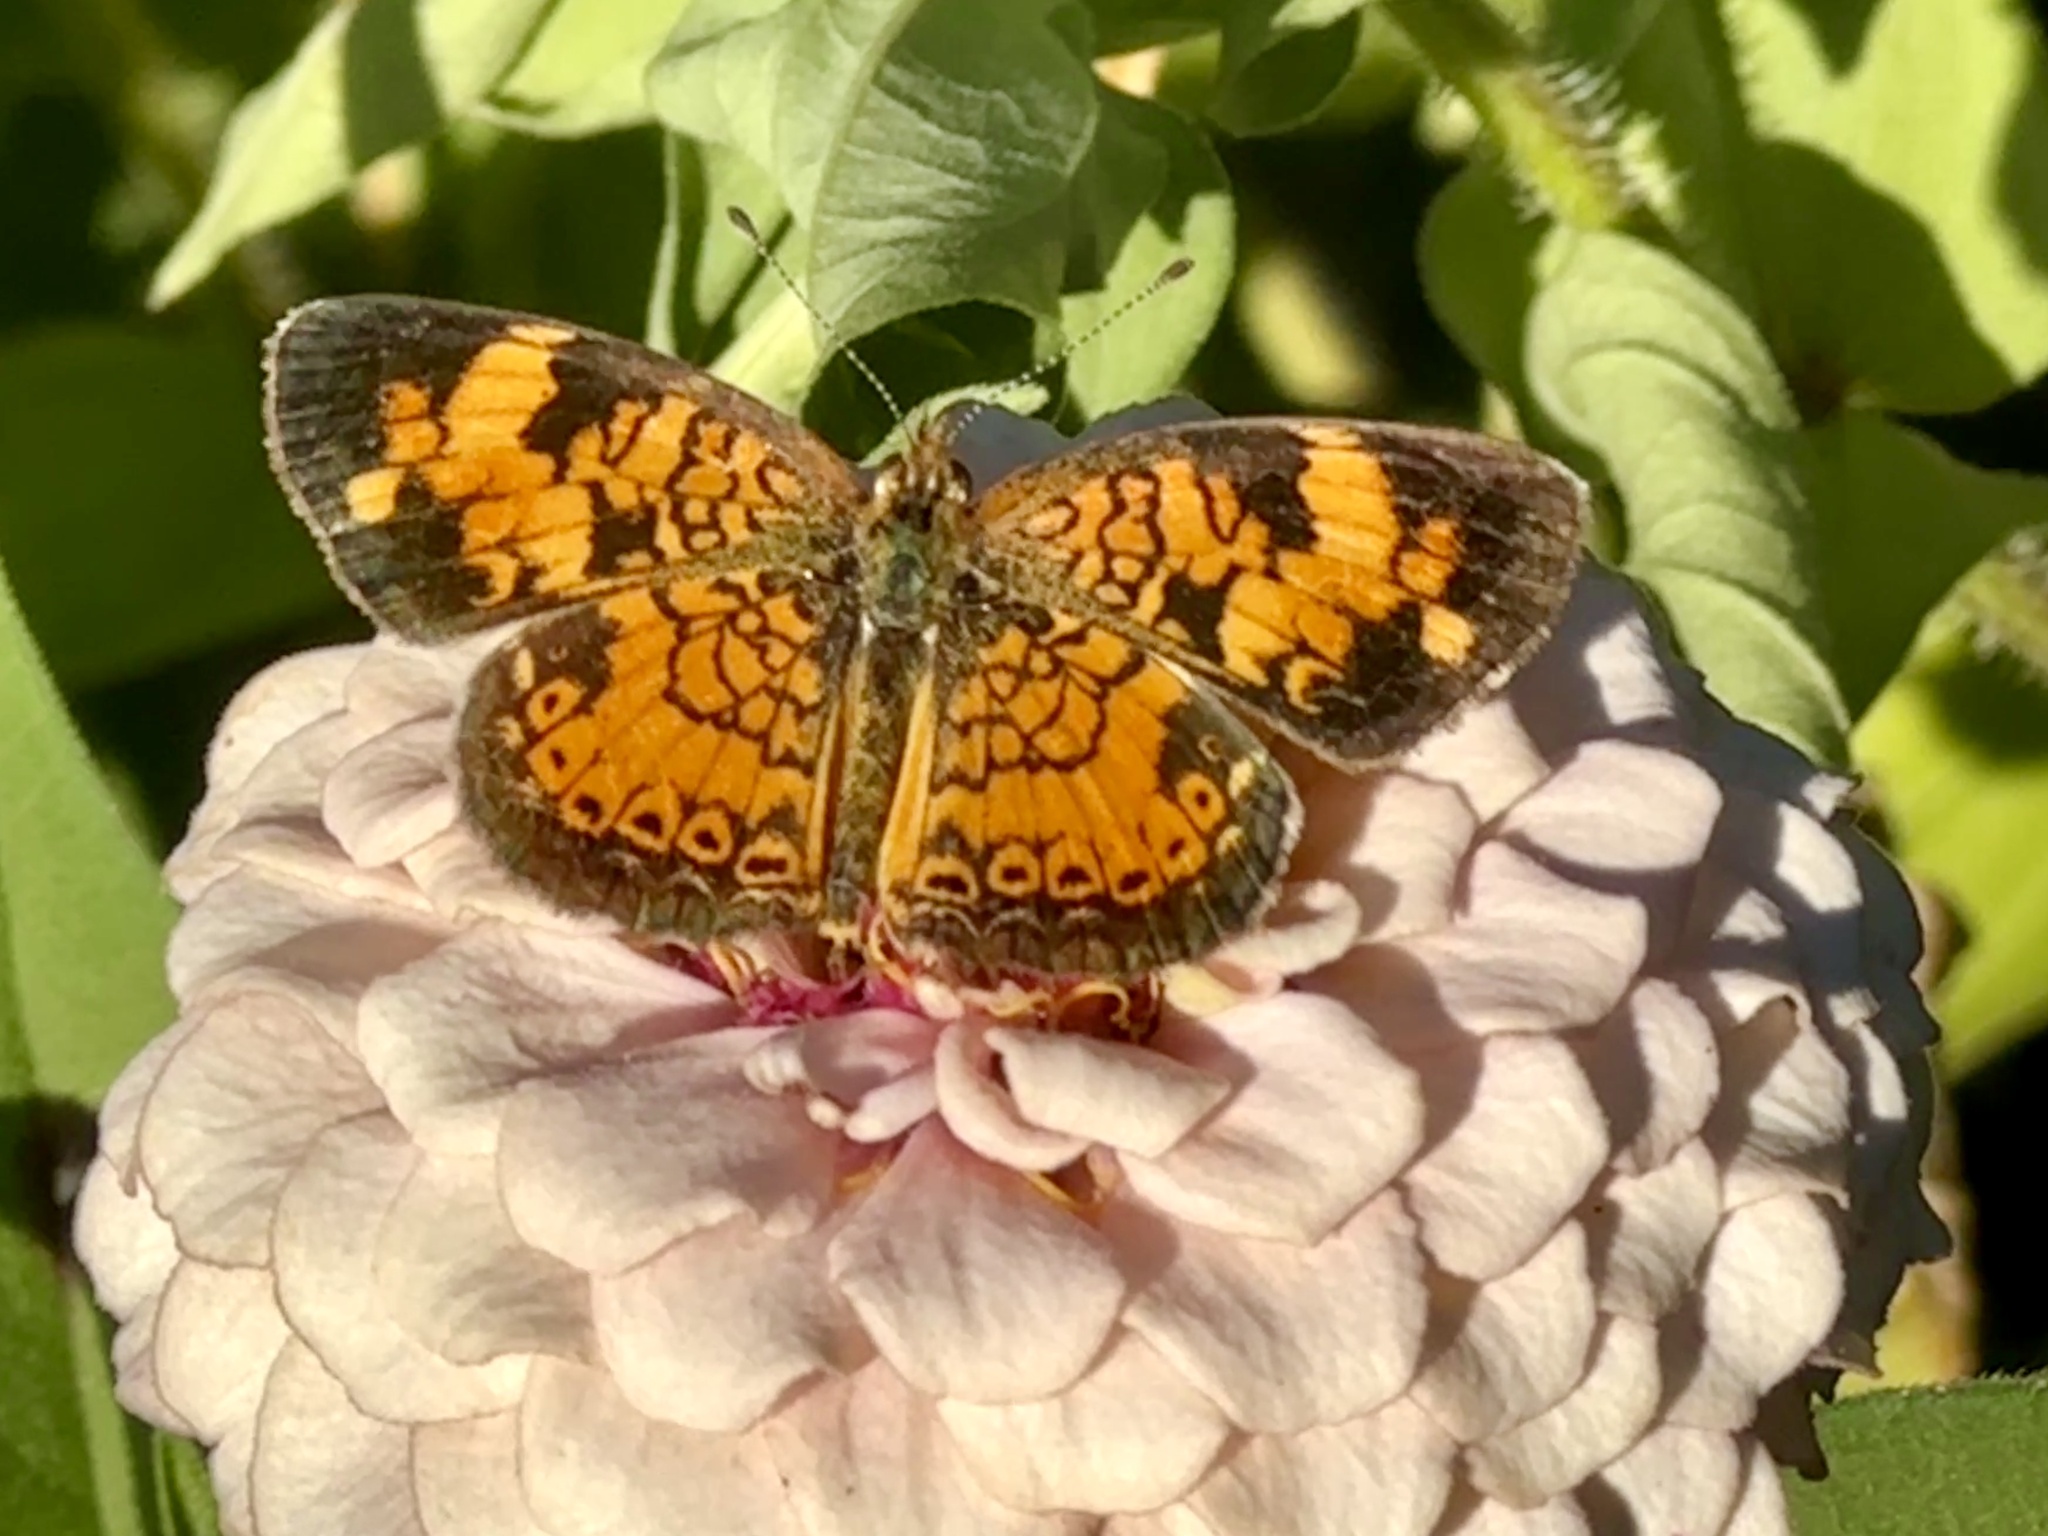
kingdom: Animalia
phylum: Arthropoda
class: Insecta
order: Lepidoptera
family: Nymphalidae
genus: Phyciodes
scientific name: Phyciodes tharos
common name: Pearl crescent
